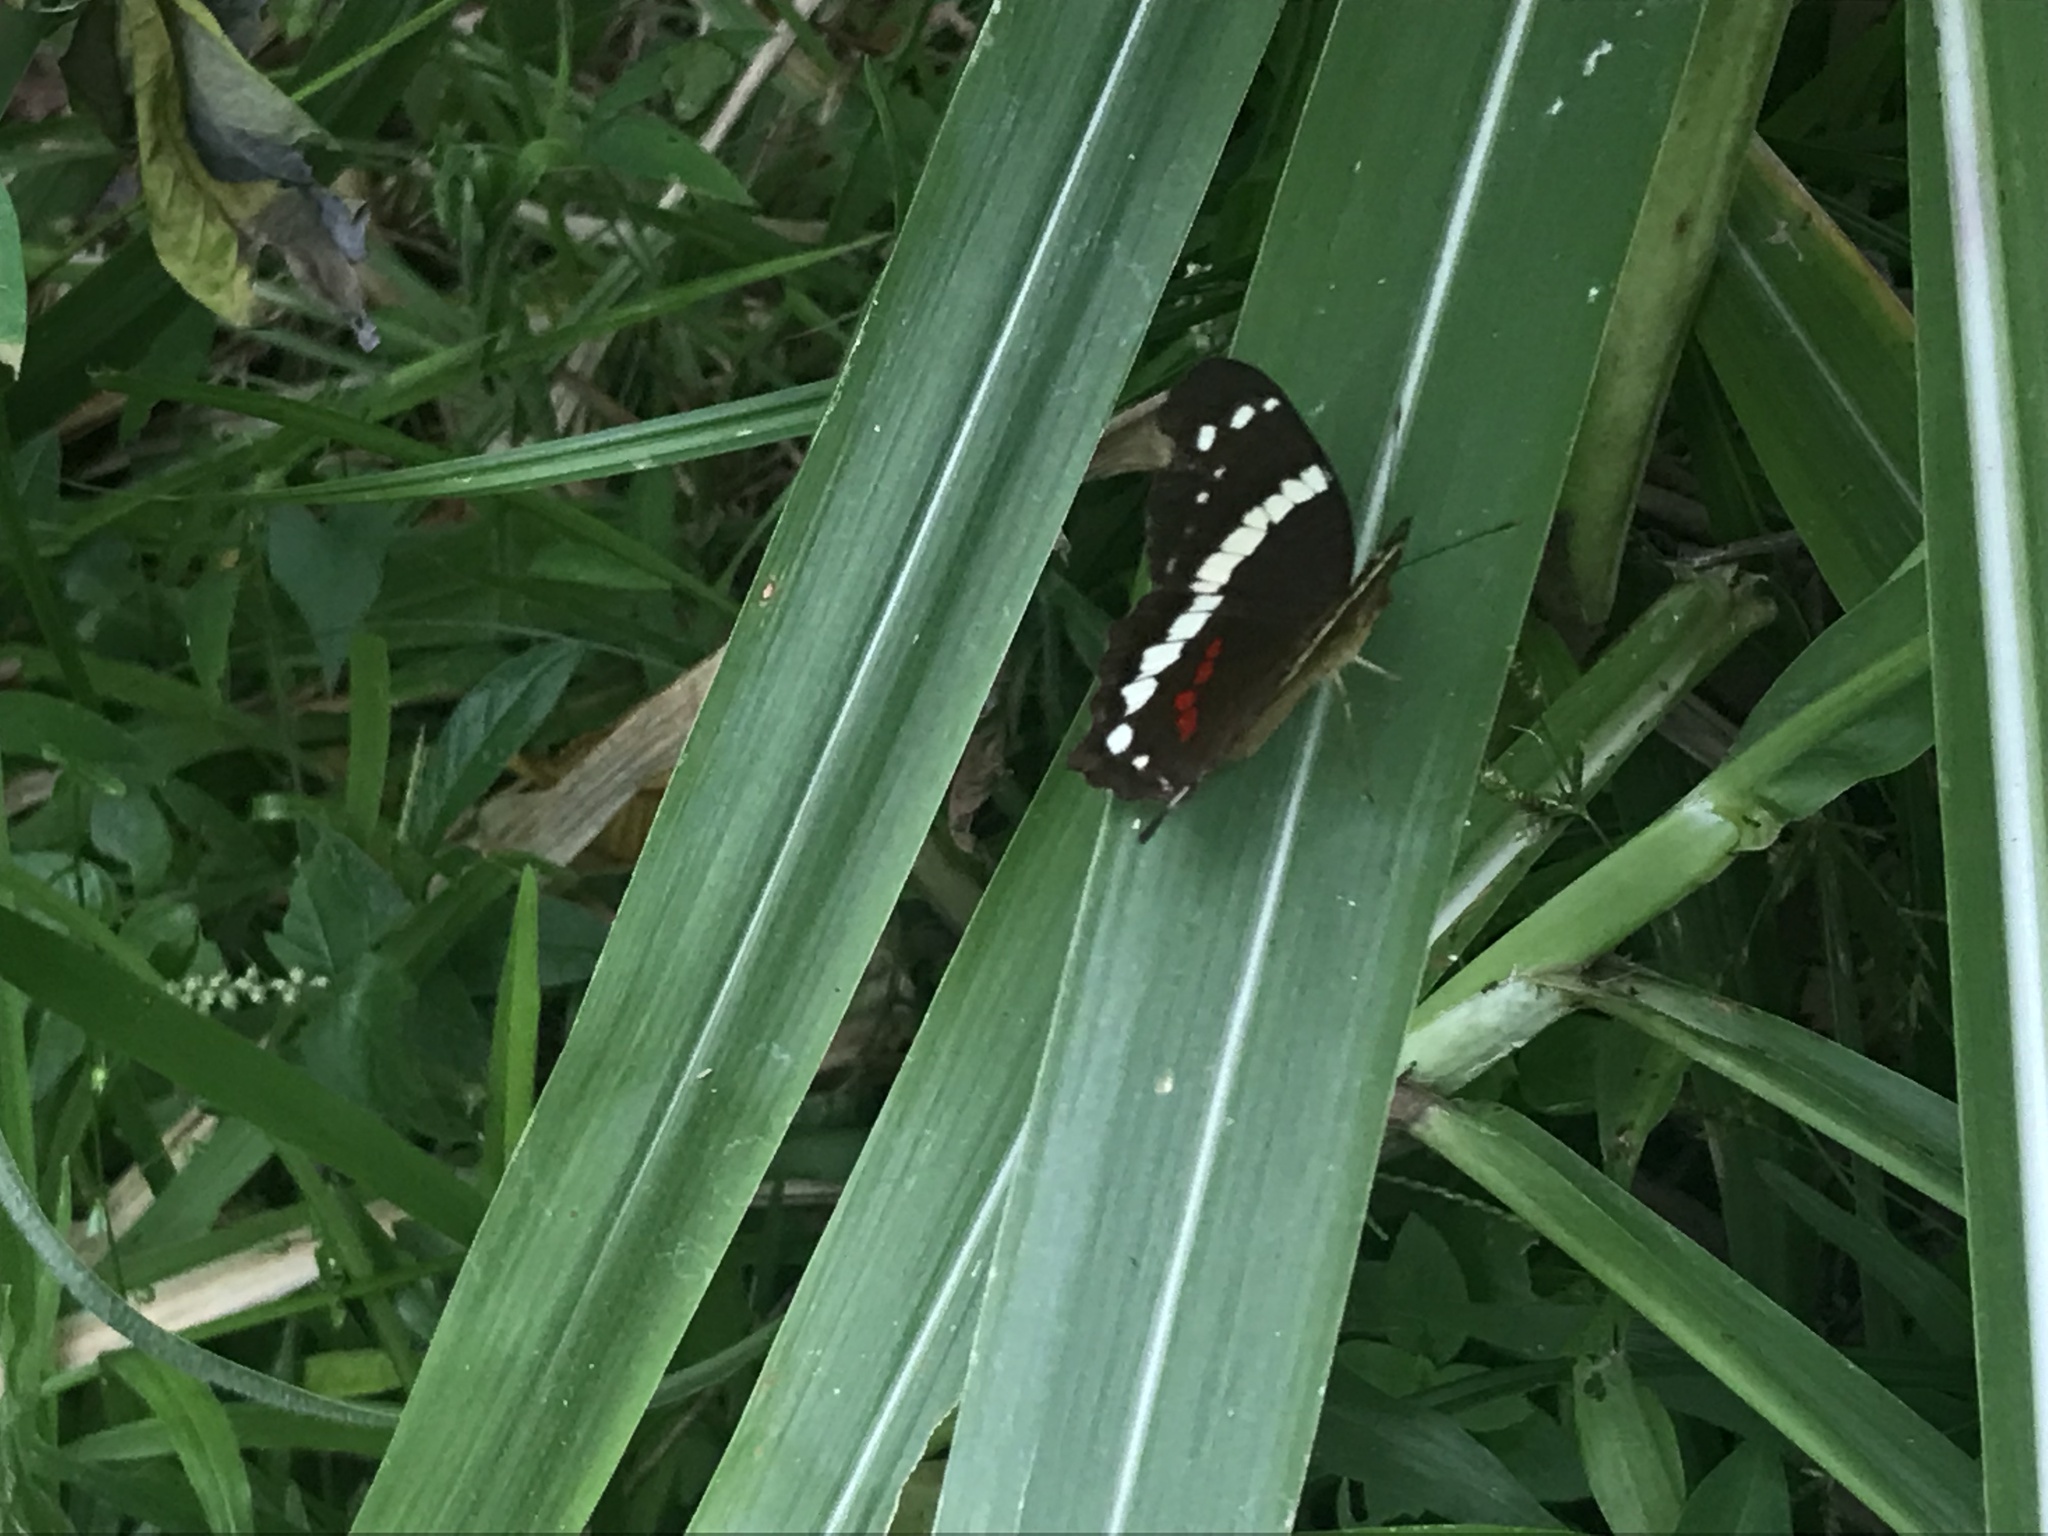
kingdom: Animalia
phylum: Arthropoda
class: Insecta
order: Lepidoptera
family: Nymphalidae
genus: Anartia
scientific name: Anartia fatima
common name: Banded peacock
